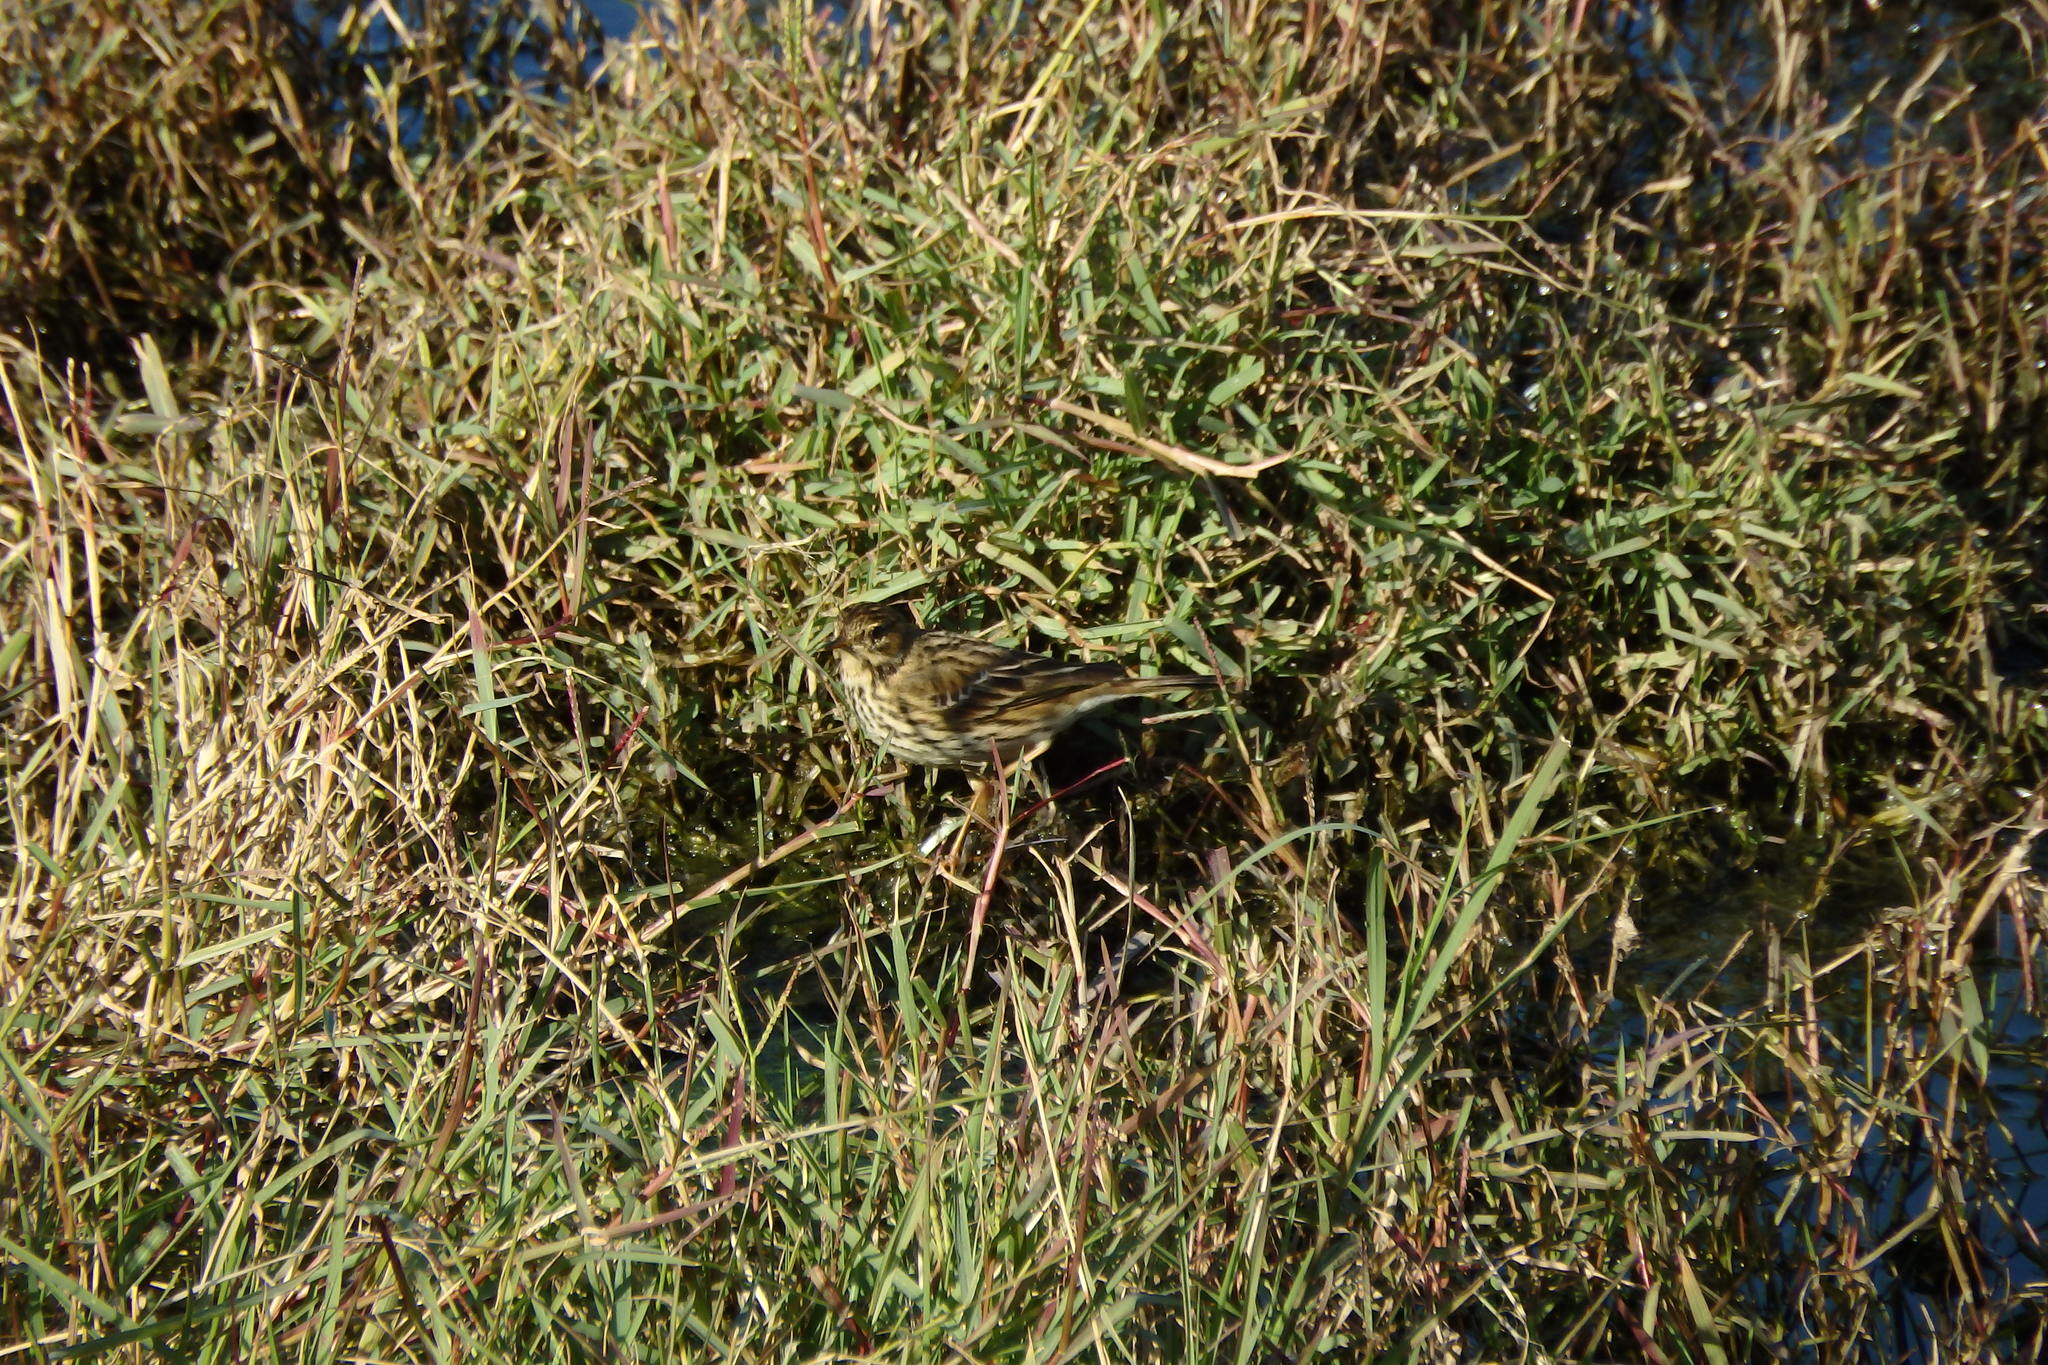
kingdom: Animalia
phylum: Chordata
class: Aves
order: Passeriformes
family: Motacillidae
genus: Anthus
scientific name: Anthus pratensis
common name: Meadow pipit
